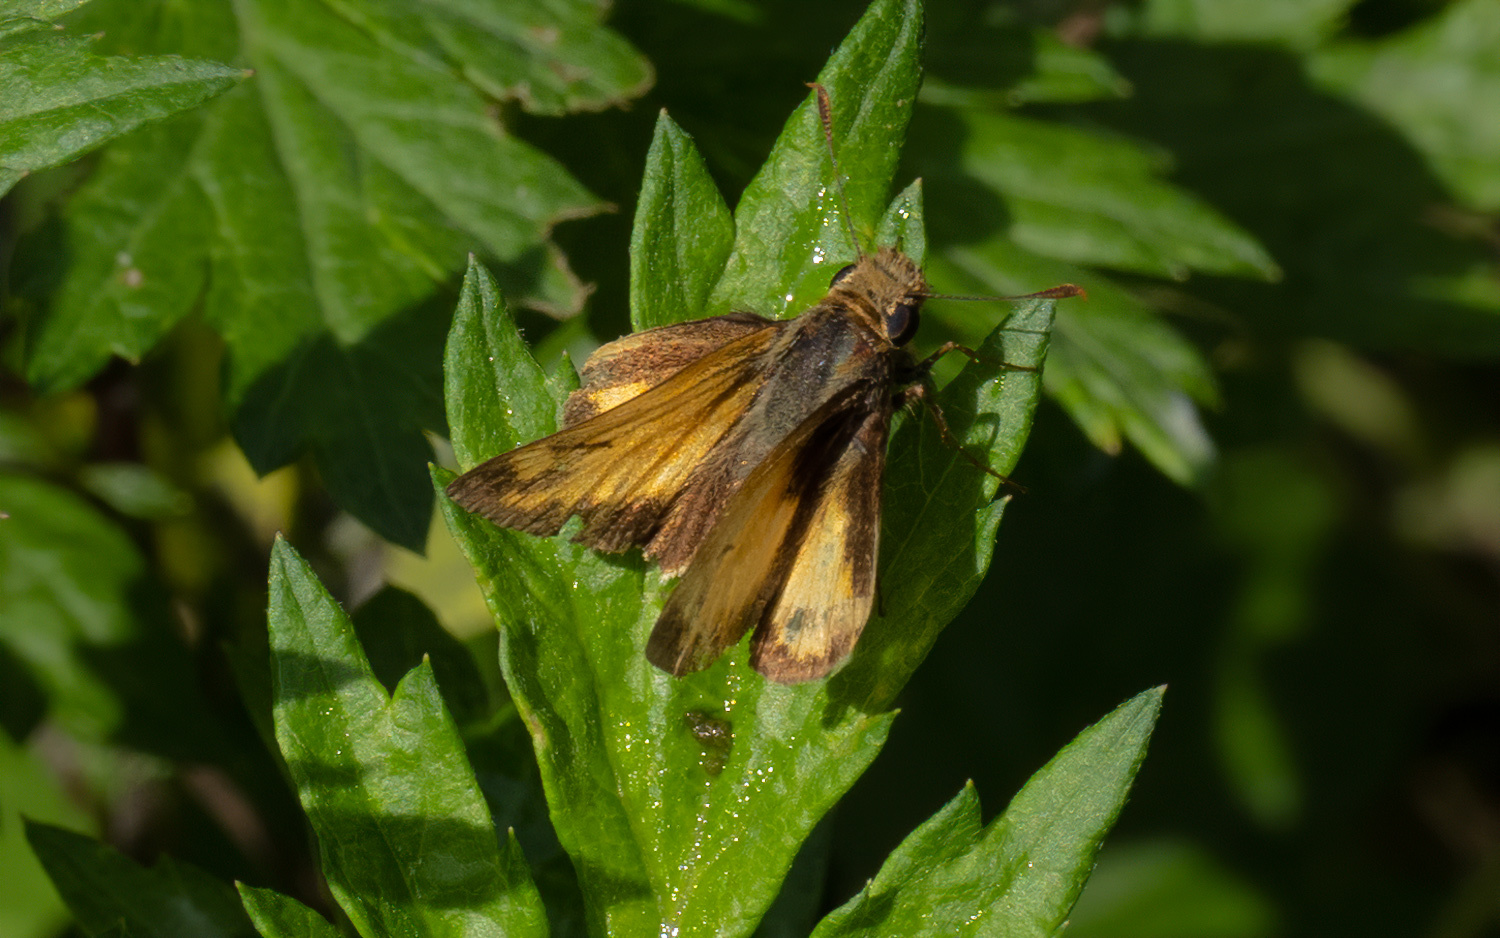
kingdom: Animalia
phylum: Arthropoda
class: Insecta
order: Lepidoptera
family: Hesperiidae
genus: Lon
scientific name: Lon zabulon
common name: Zabulon skipper
